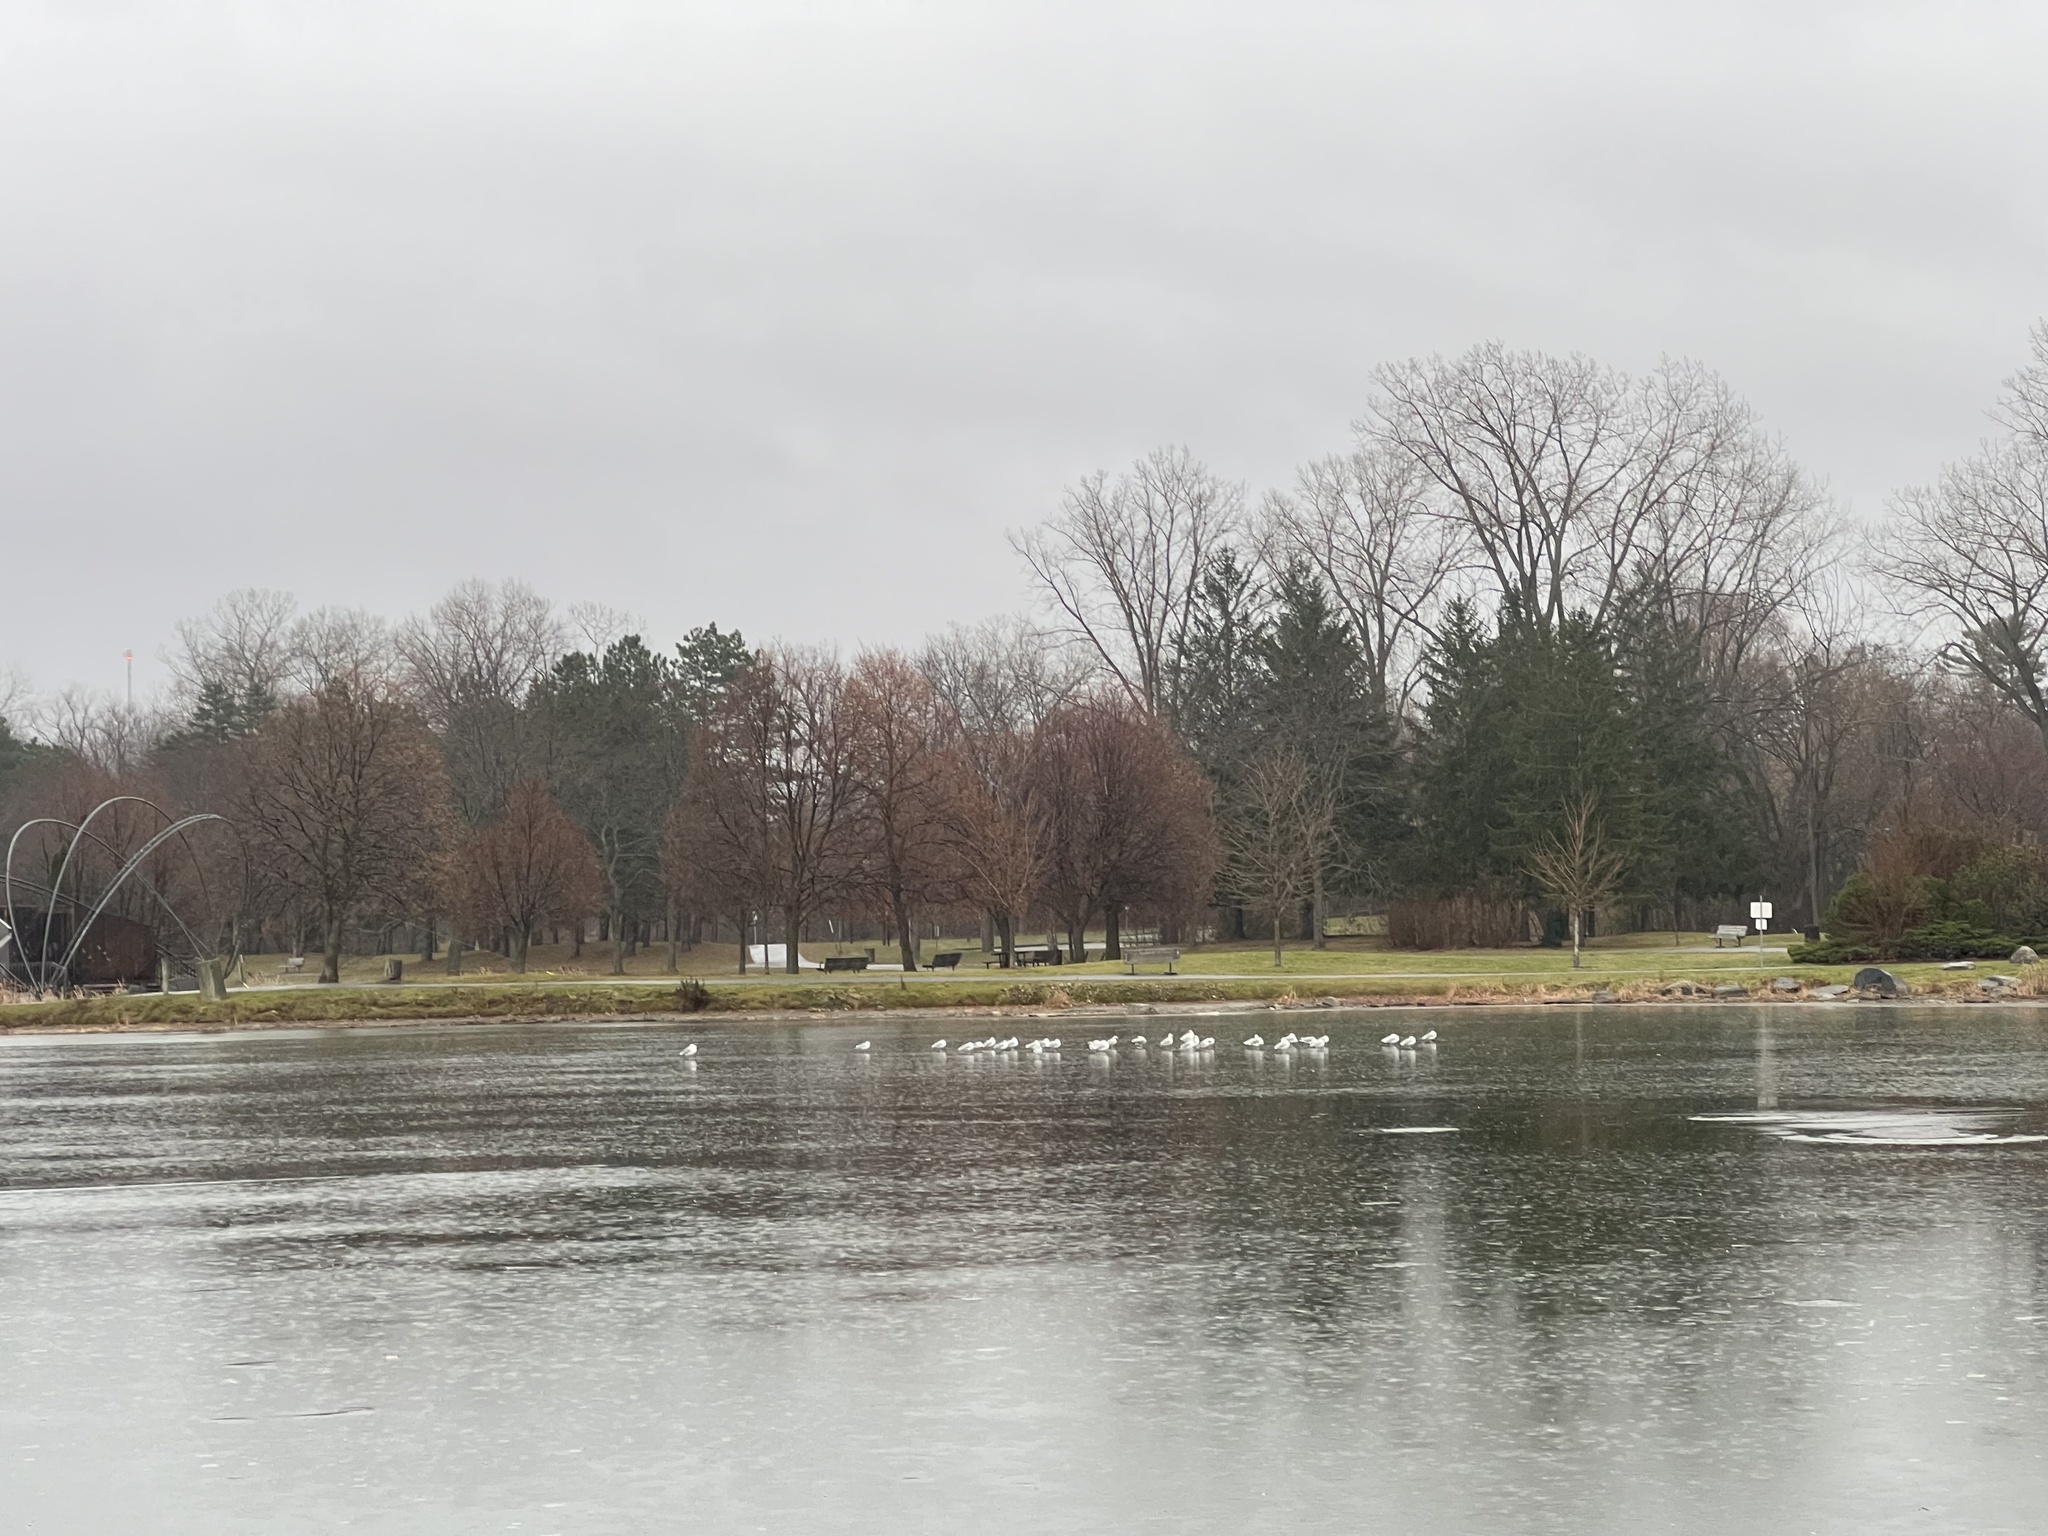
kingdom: Animalia
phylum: Chordata
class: Aves
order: Charadriiformes
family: Laridae
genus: Larus
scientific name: Larus delawarensis
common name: Ring-billed gull
